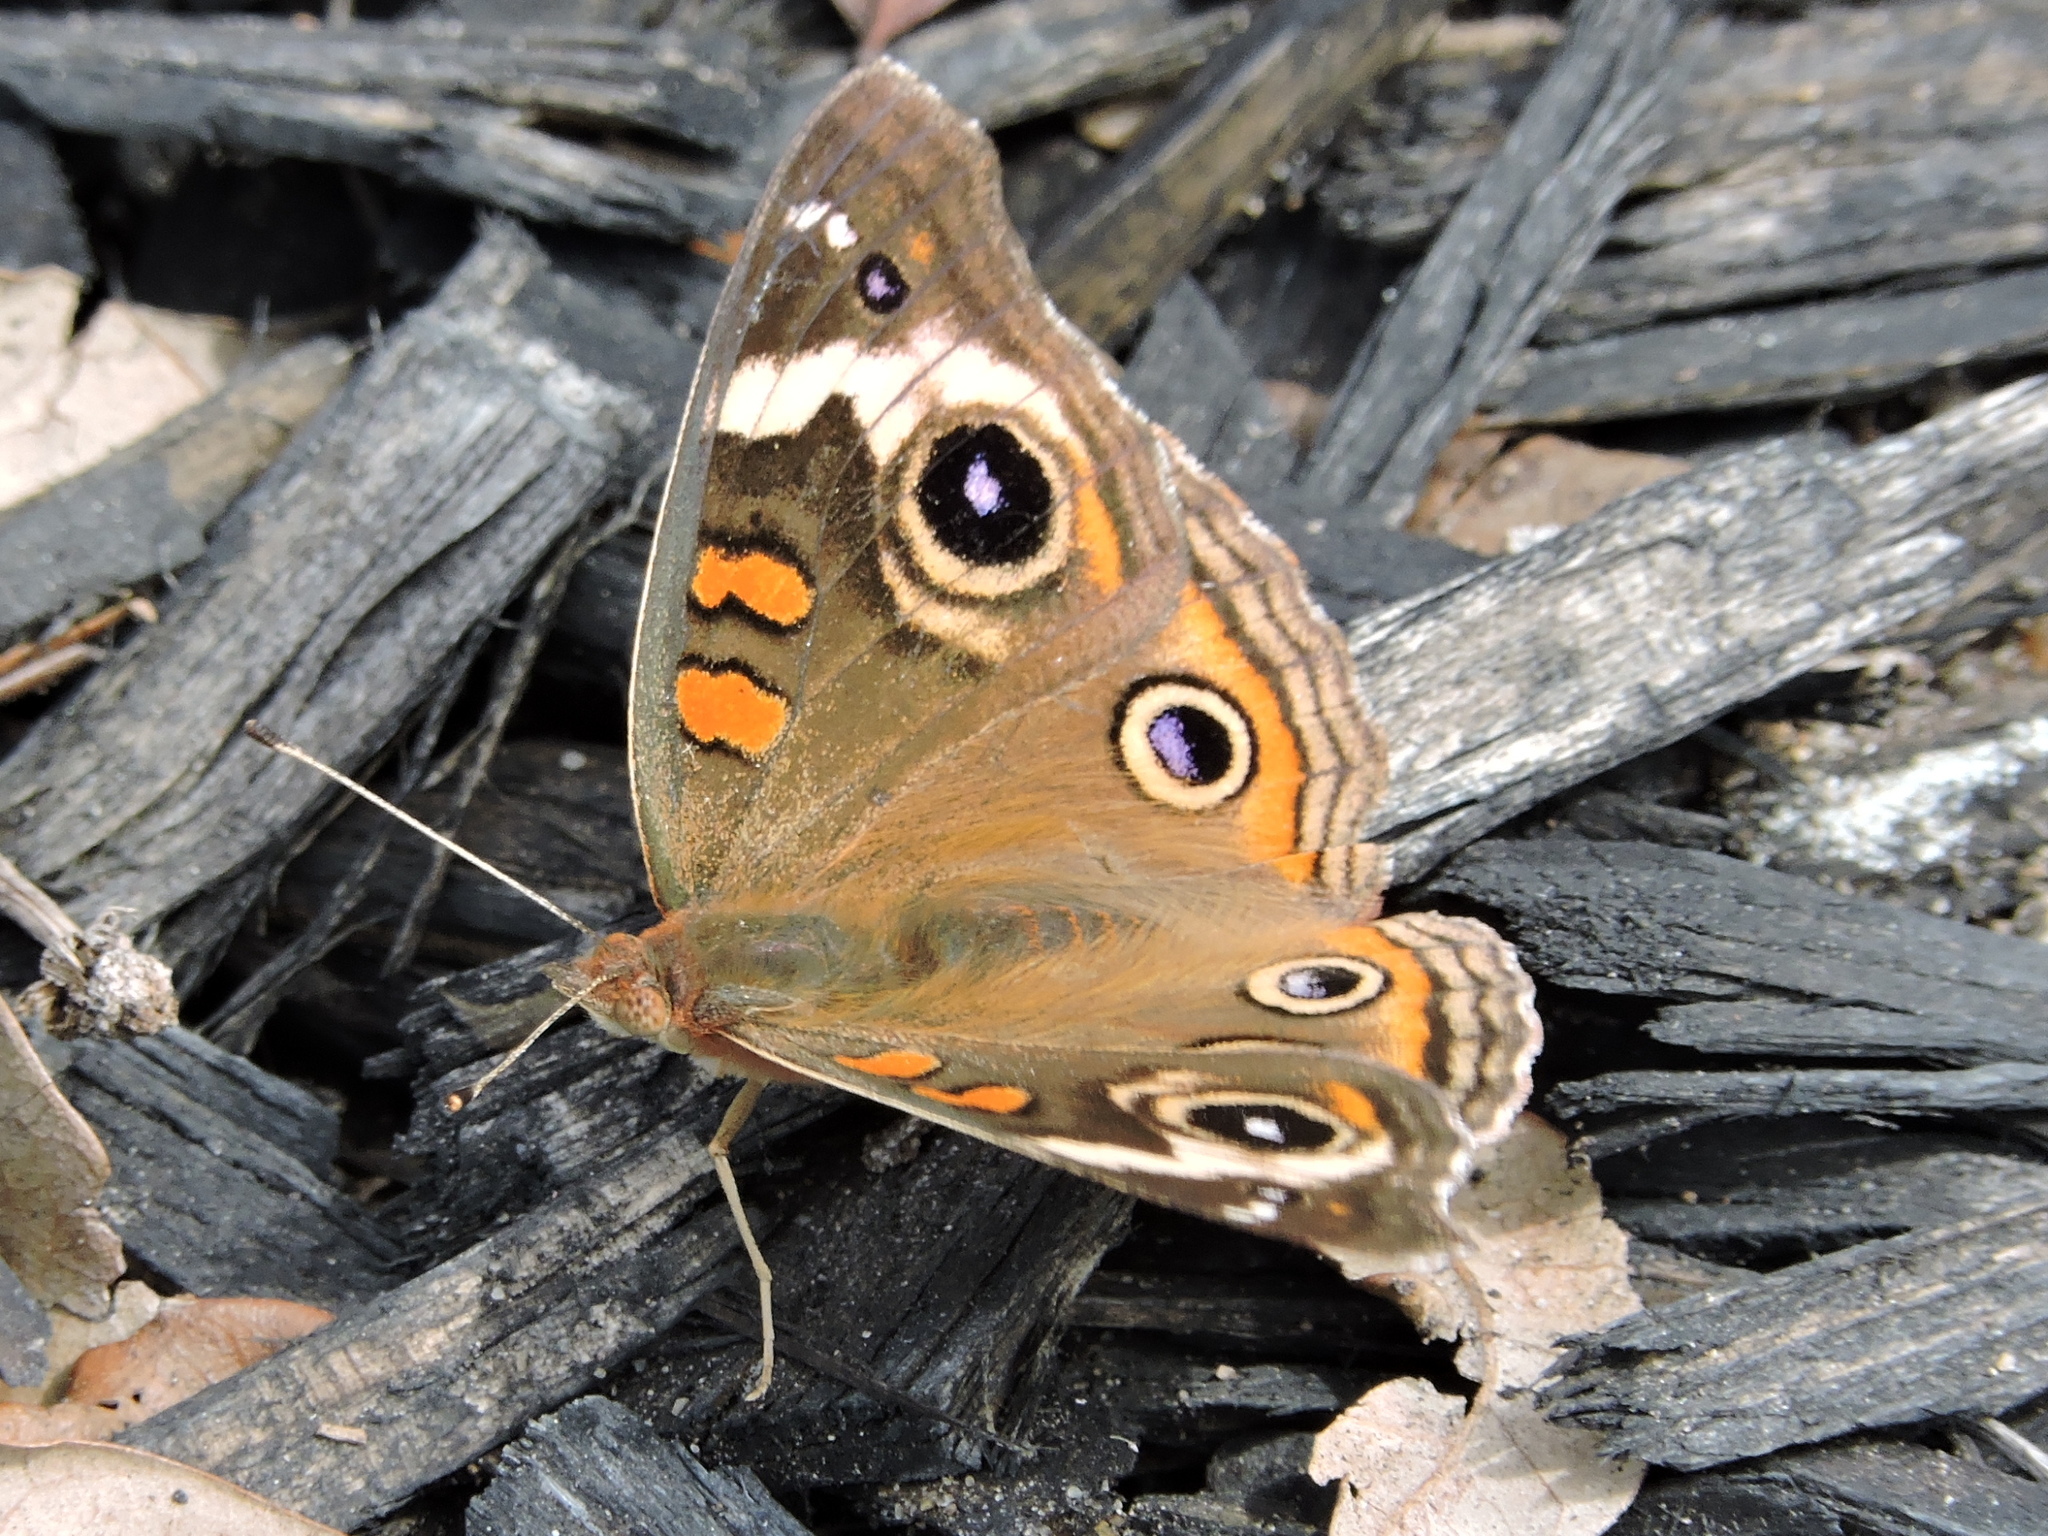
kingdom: Animalia
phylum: Arthropoda
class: Insecta
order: Lepidoptera
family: Nymphalidae
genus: Junonia
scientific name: Junonia coenia
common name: Common buckeye
